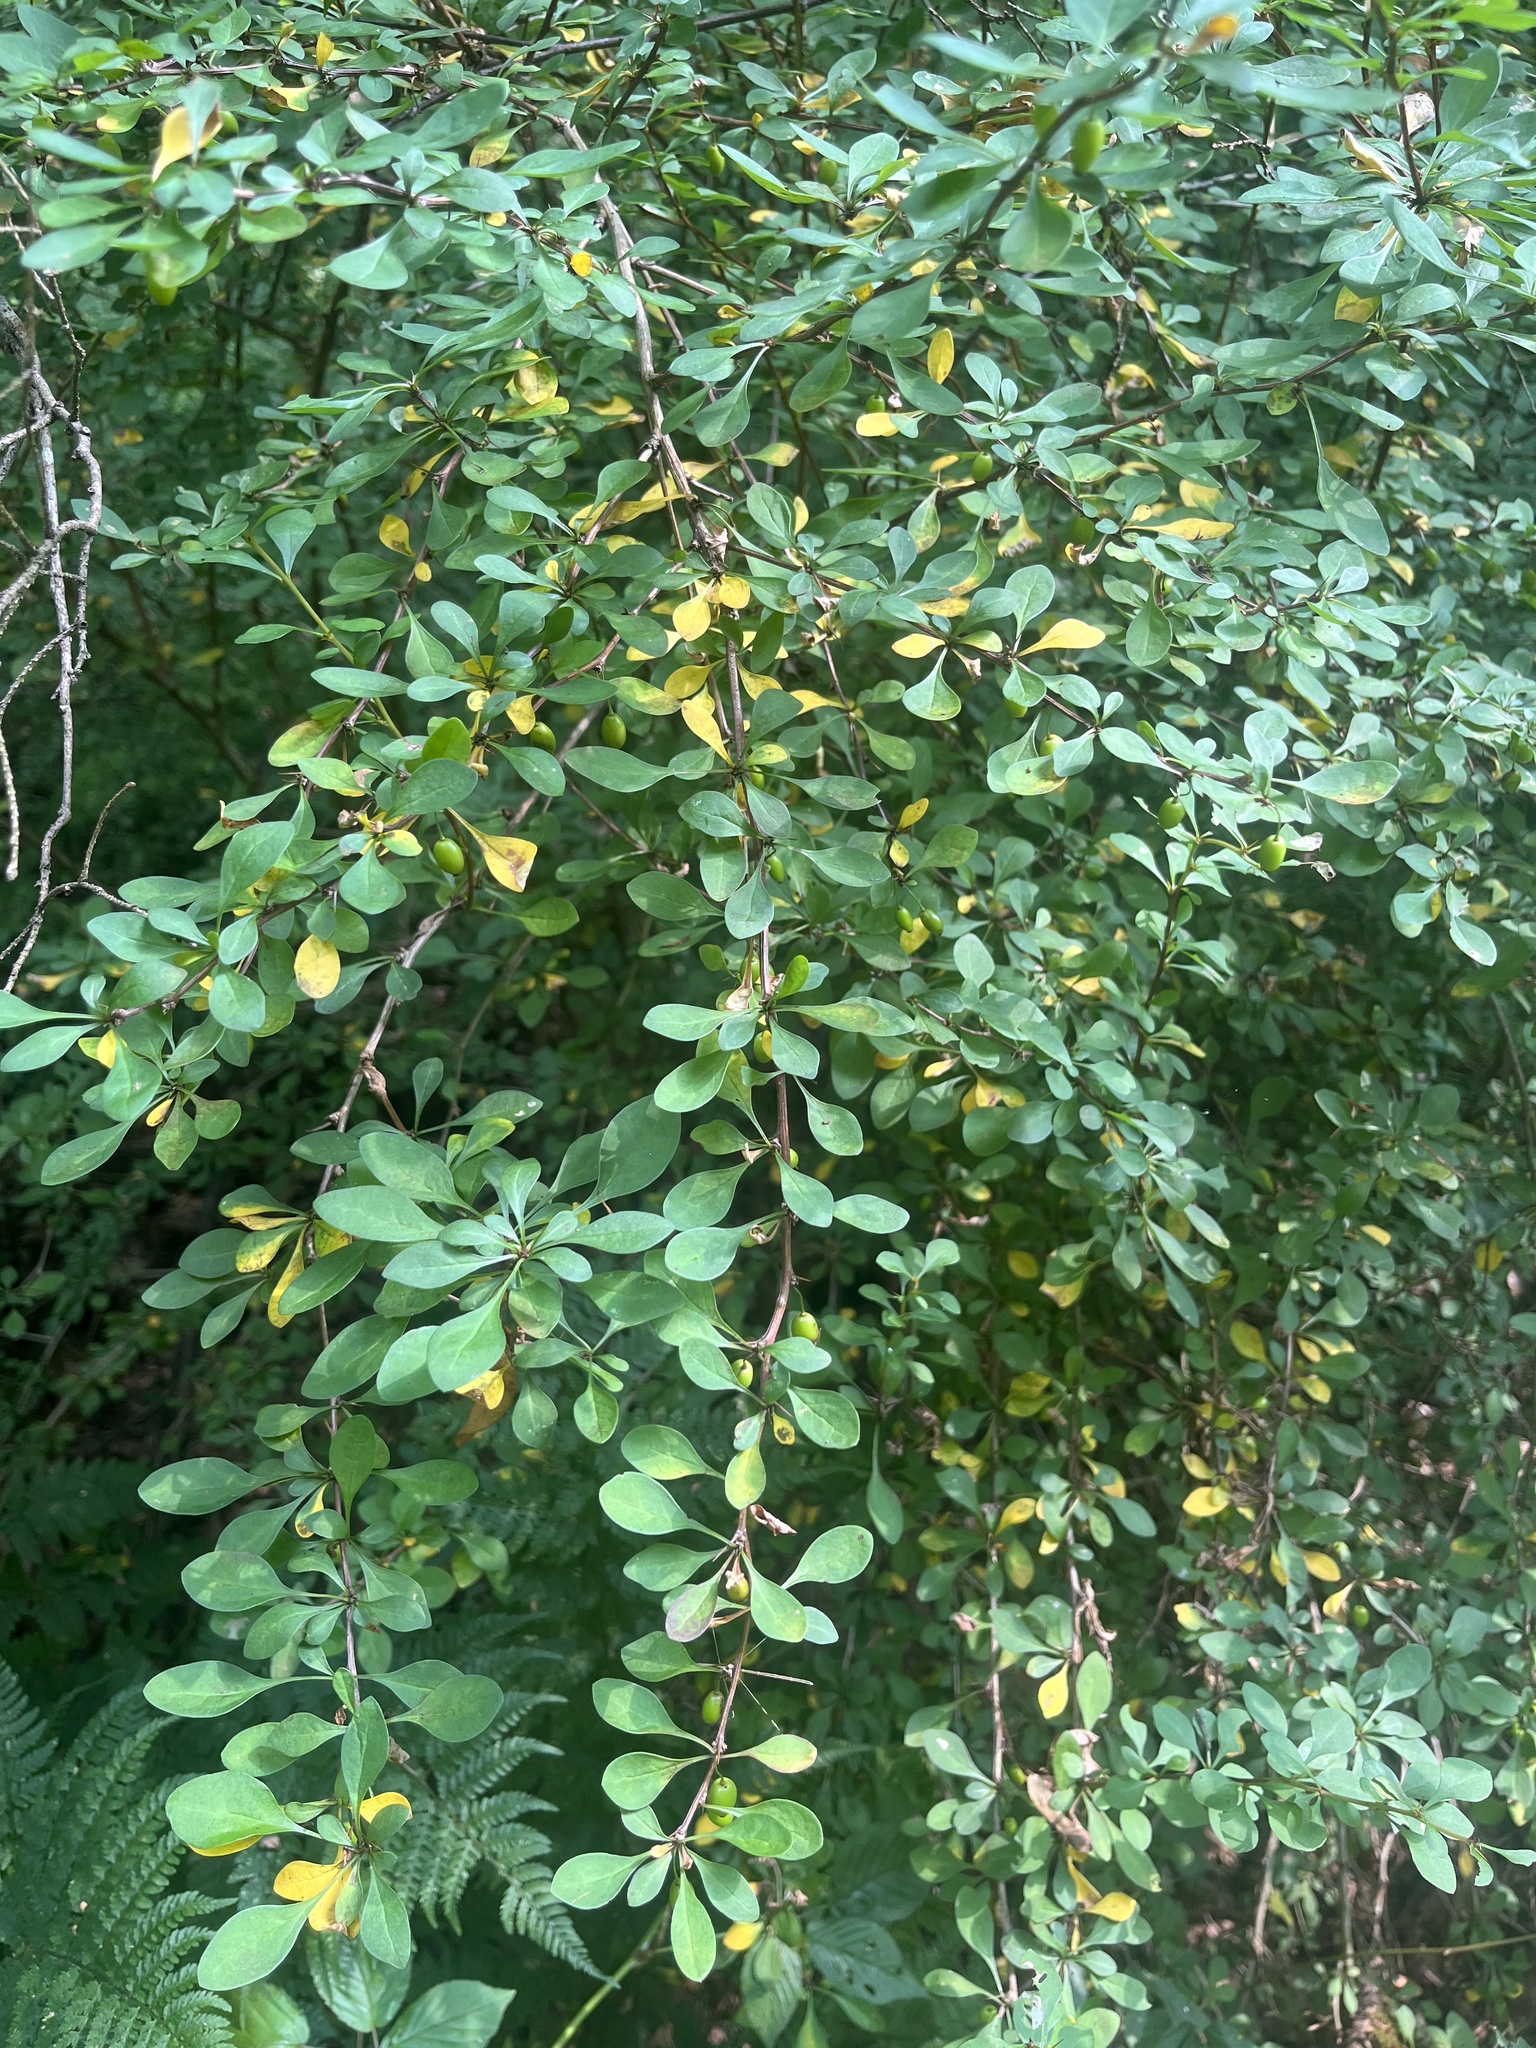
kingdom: Plantae
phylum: Tracheophyta
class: Magnoliopsida
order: Ranunculales
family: Berberidaceae
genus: Berberis
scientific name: Berberis thunbergii
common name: Japanese barberry
